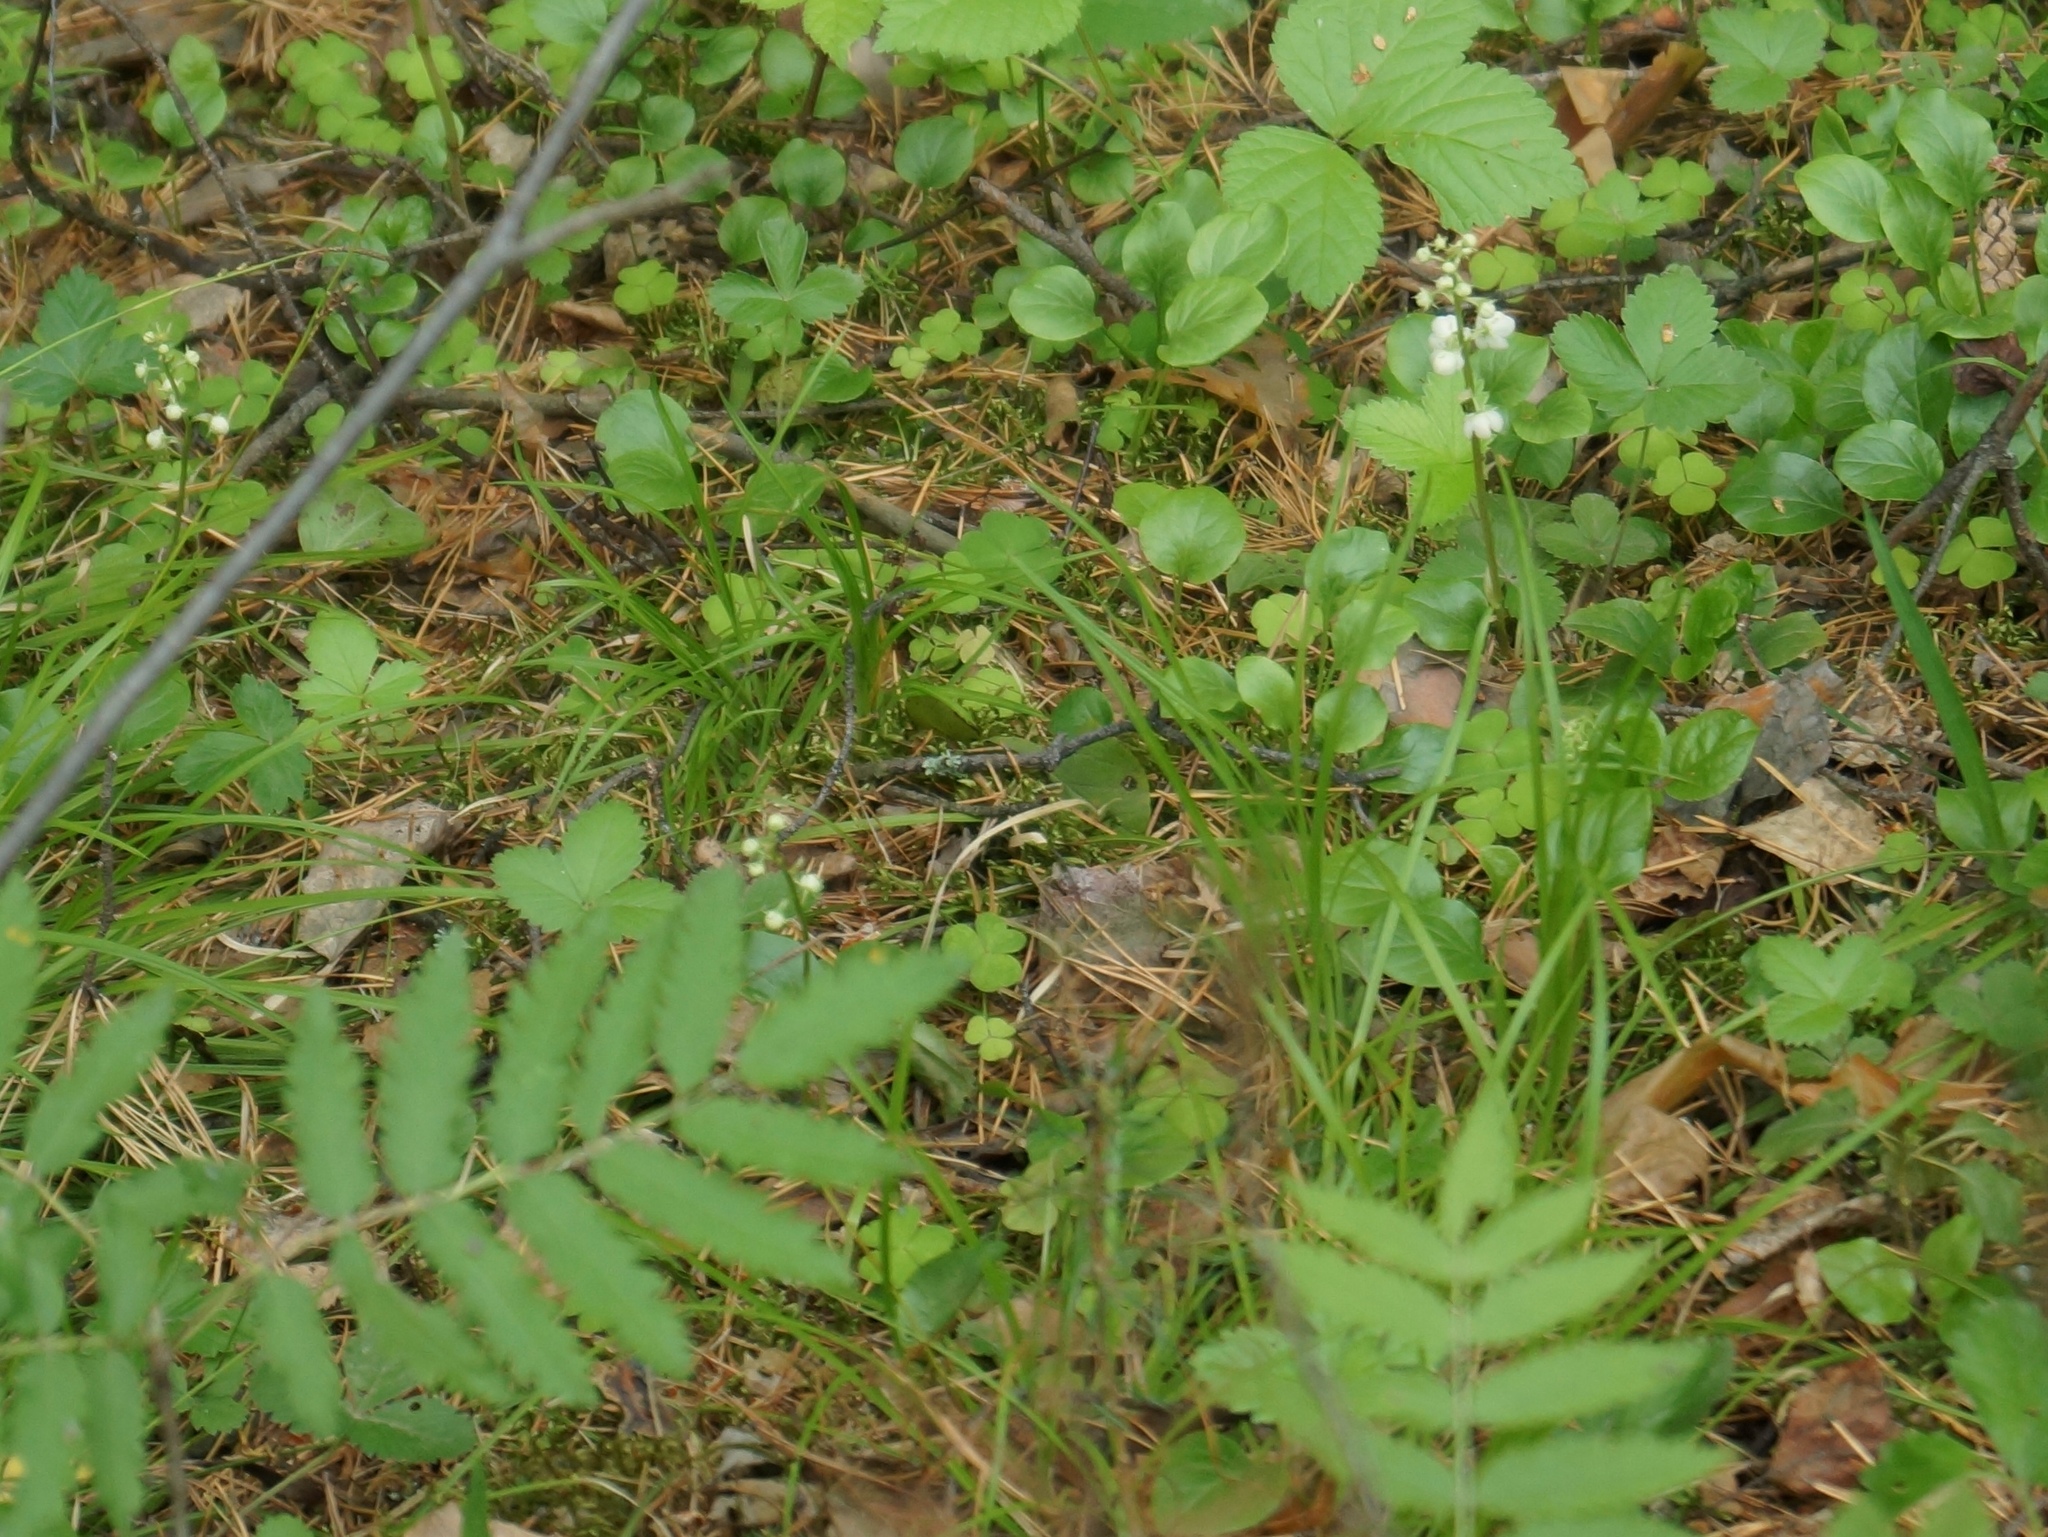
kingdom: Plantae
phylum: Tracheophyta
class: Magnoliopsida
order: Ericales
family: Ericaceae
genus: Pyrola
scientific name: Pyrola rotundifolia
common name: Round-leaved wintergreen
